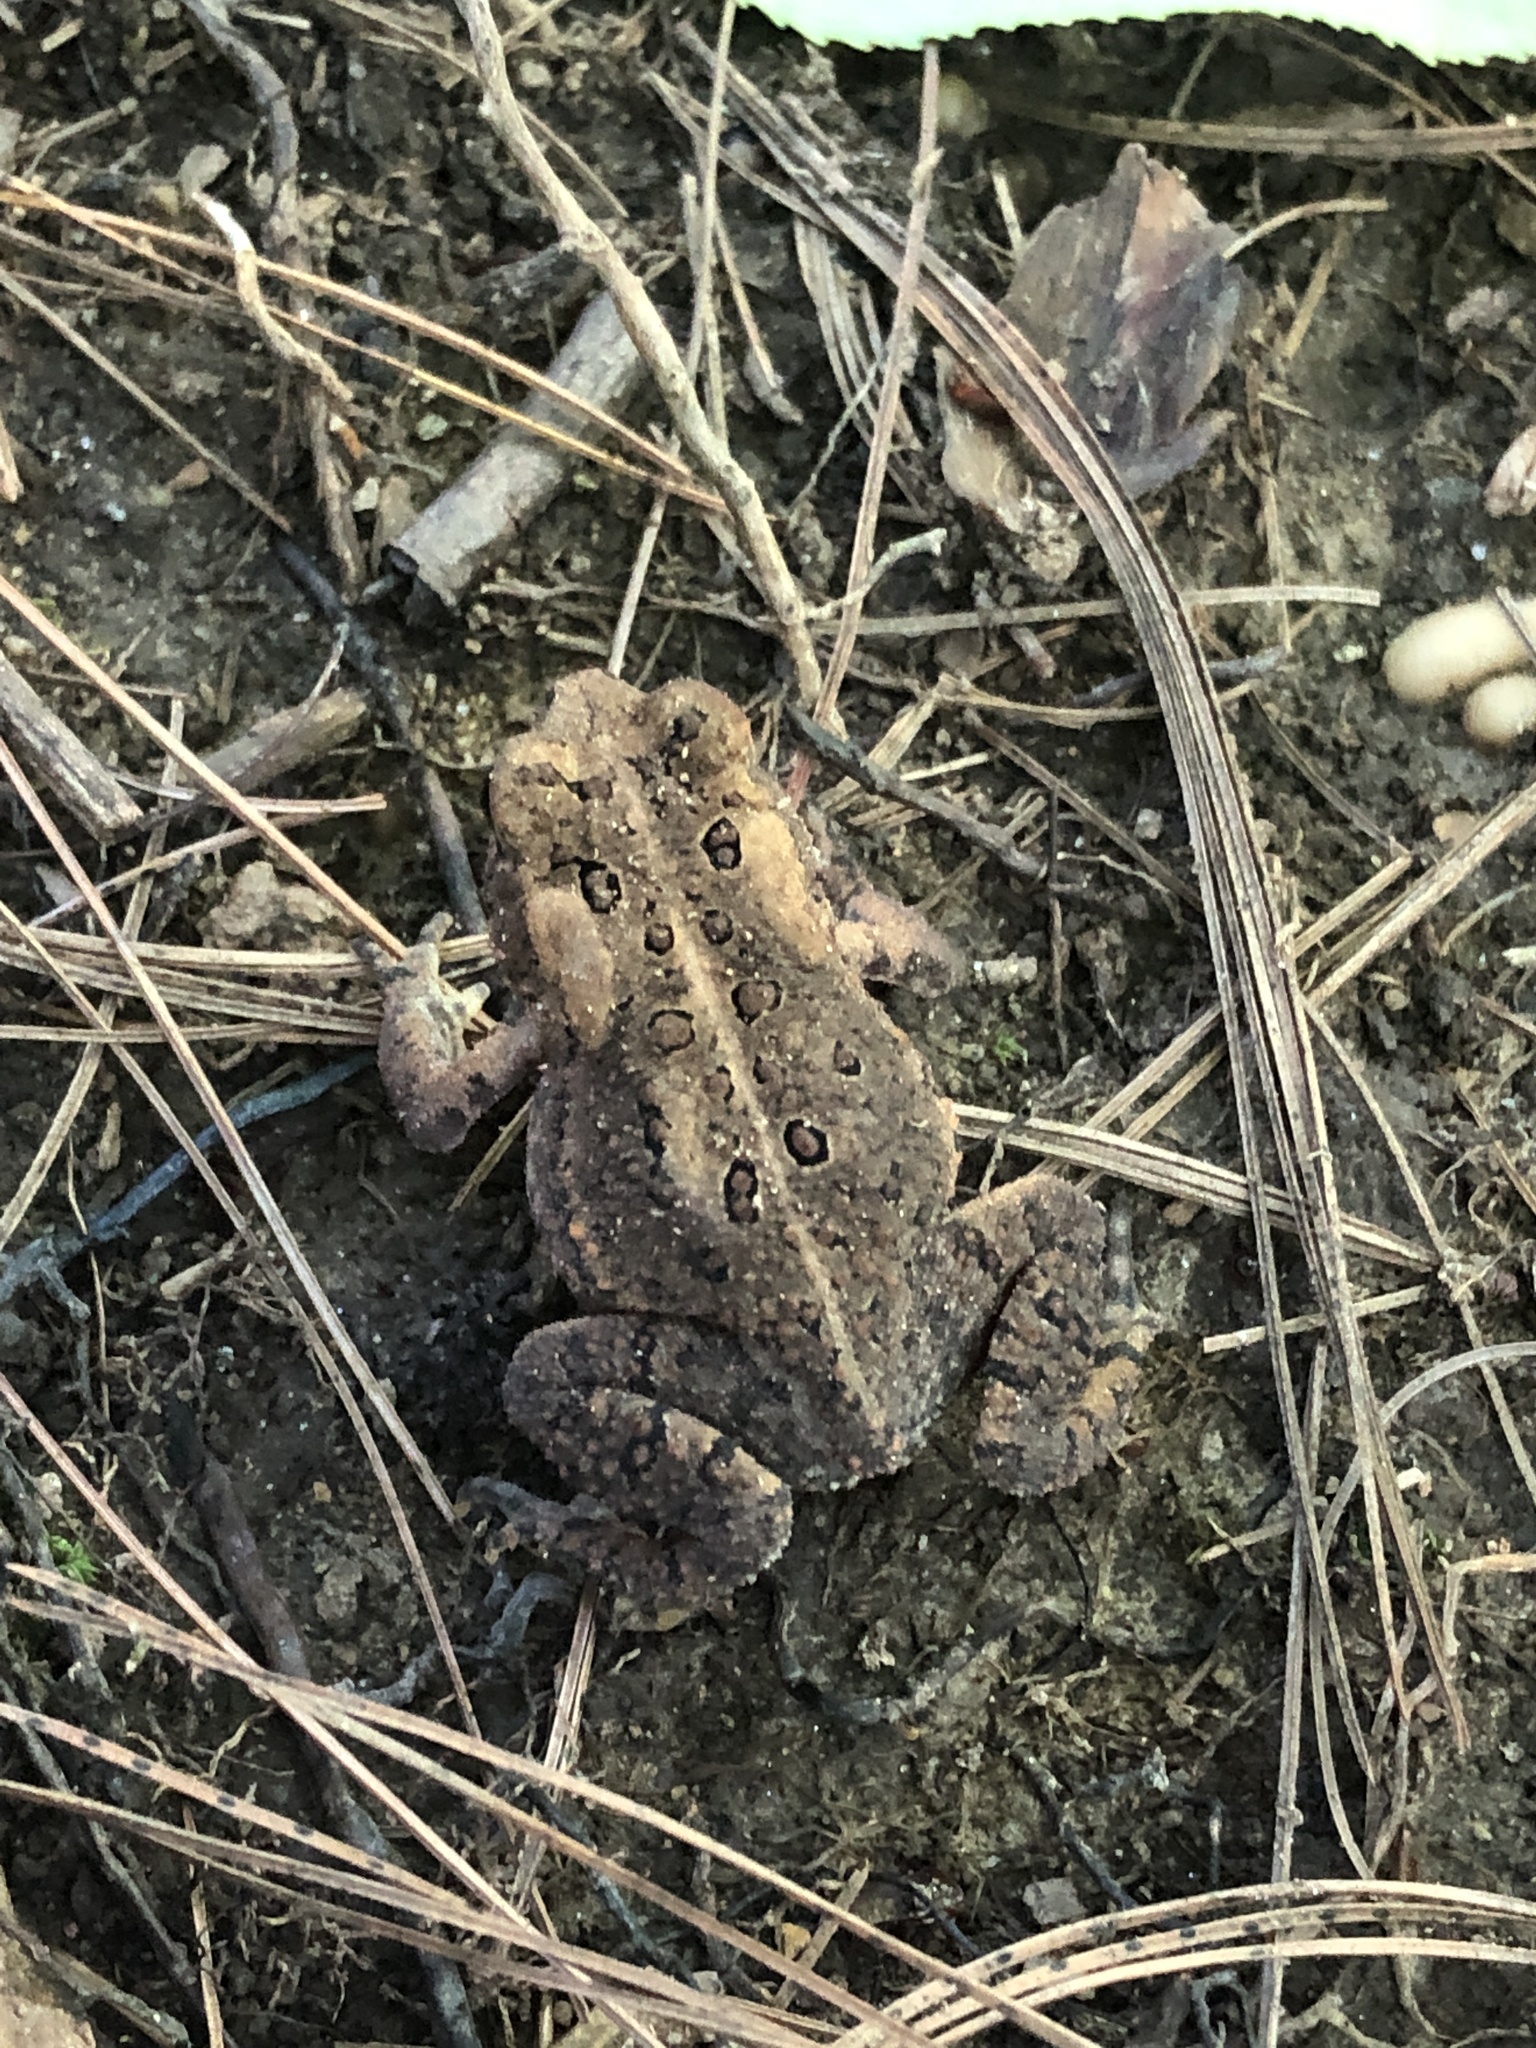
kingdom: Animalia
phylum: Chordata
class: Amphibia
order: Anura
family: Bufonidae
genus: Anaxyrus
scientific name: Anaxyrus americanus
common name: American toad
